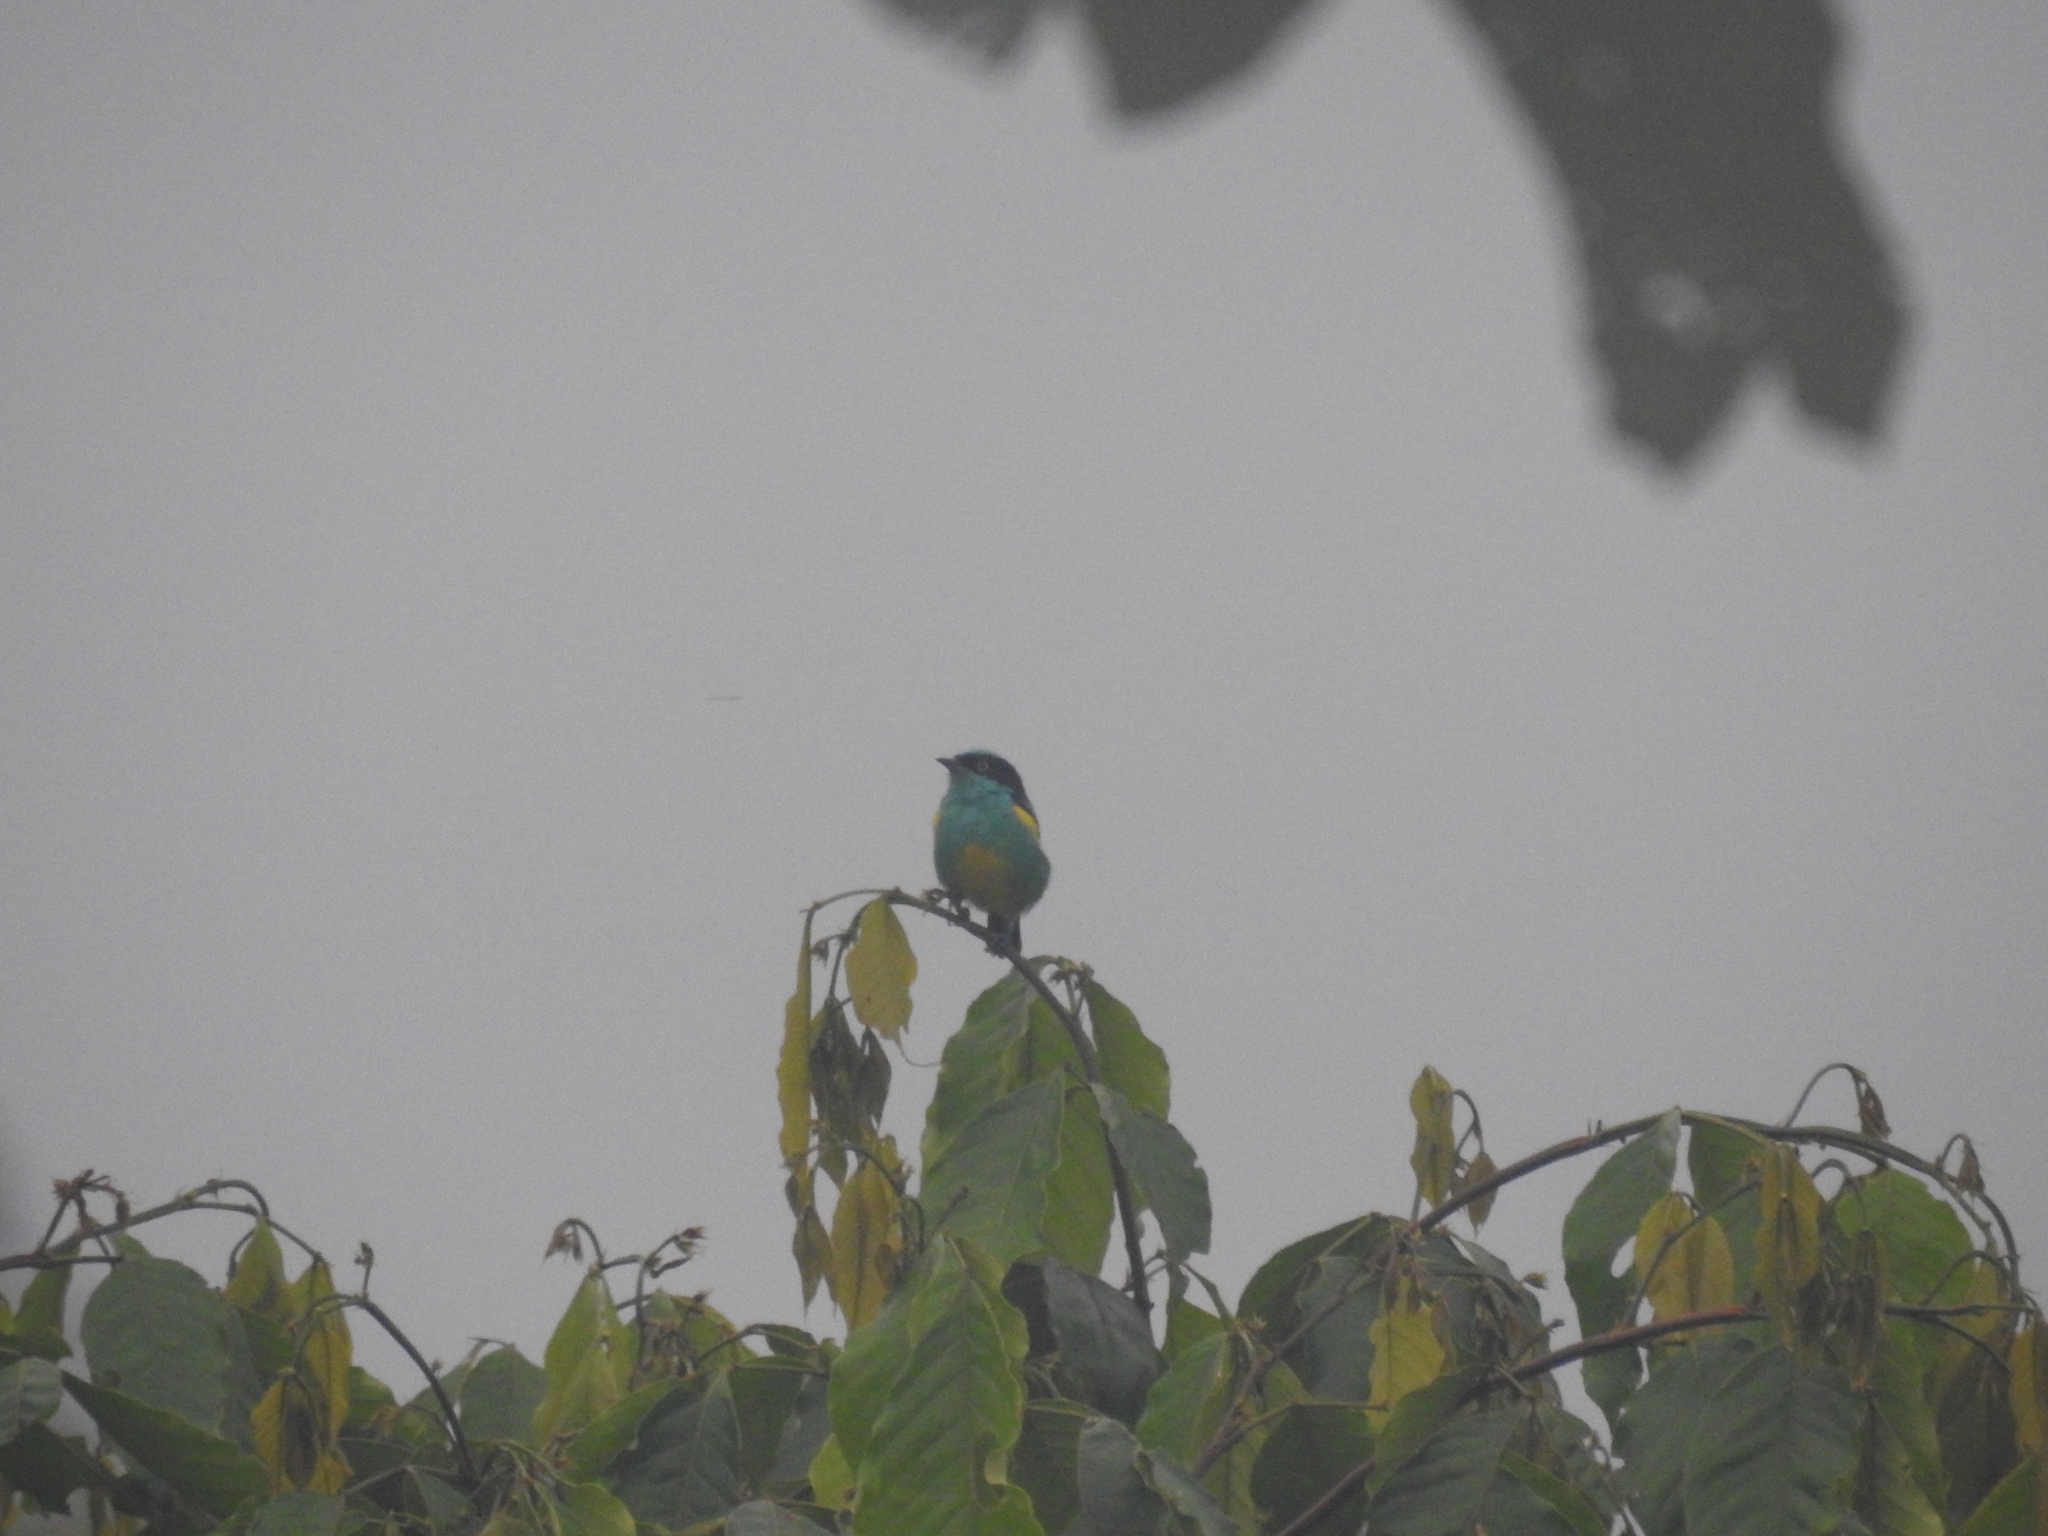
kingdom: Animalia
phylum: Chordata
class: Aves
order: Passeriformes
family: Thraupidae
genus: Dacnis
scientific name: Dacnis lineata
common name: Black-faced dacnis
